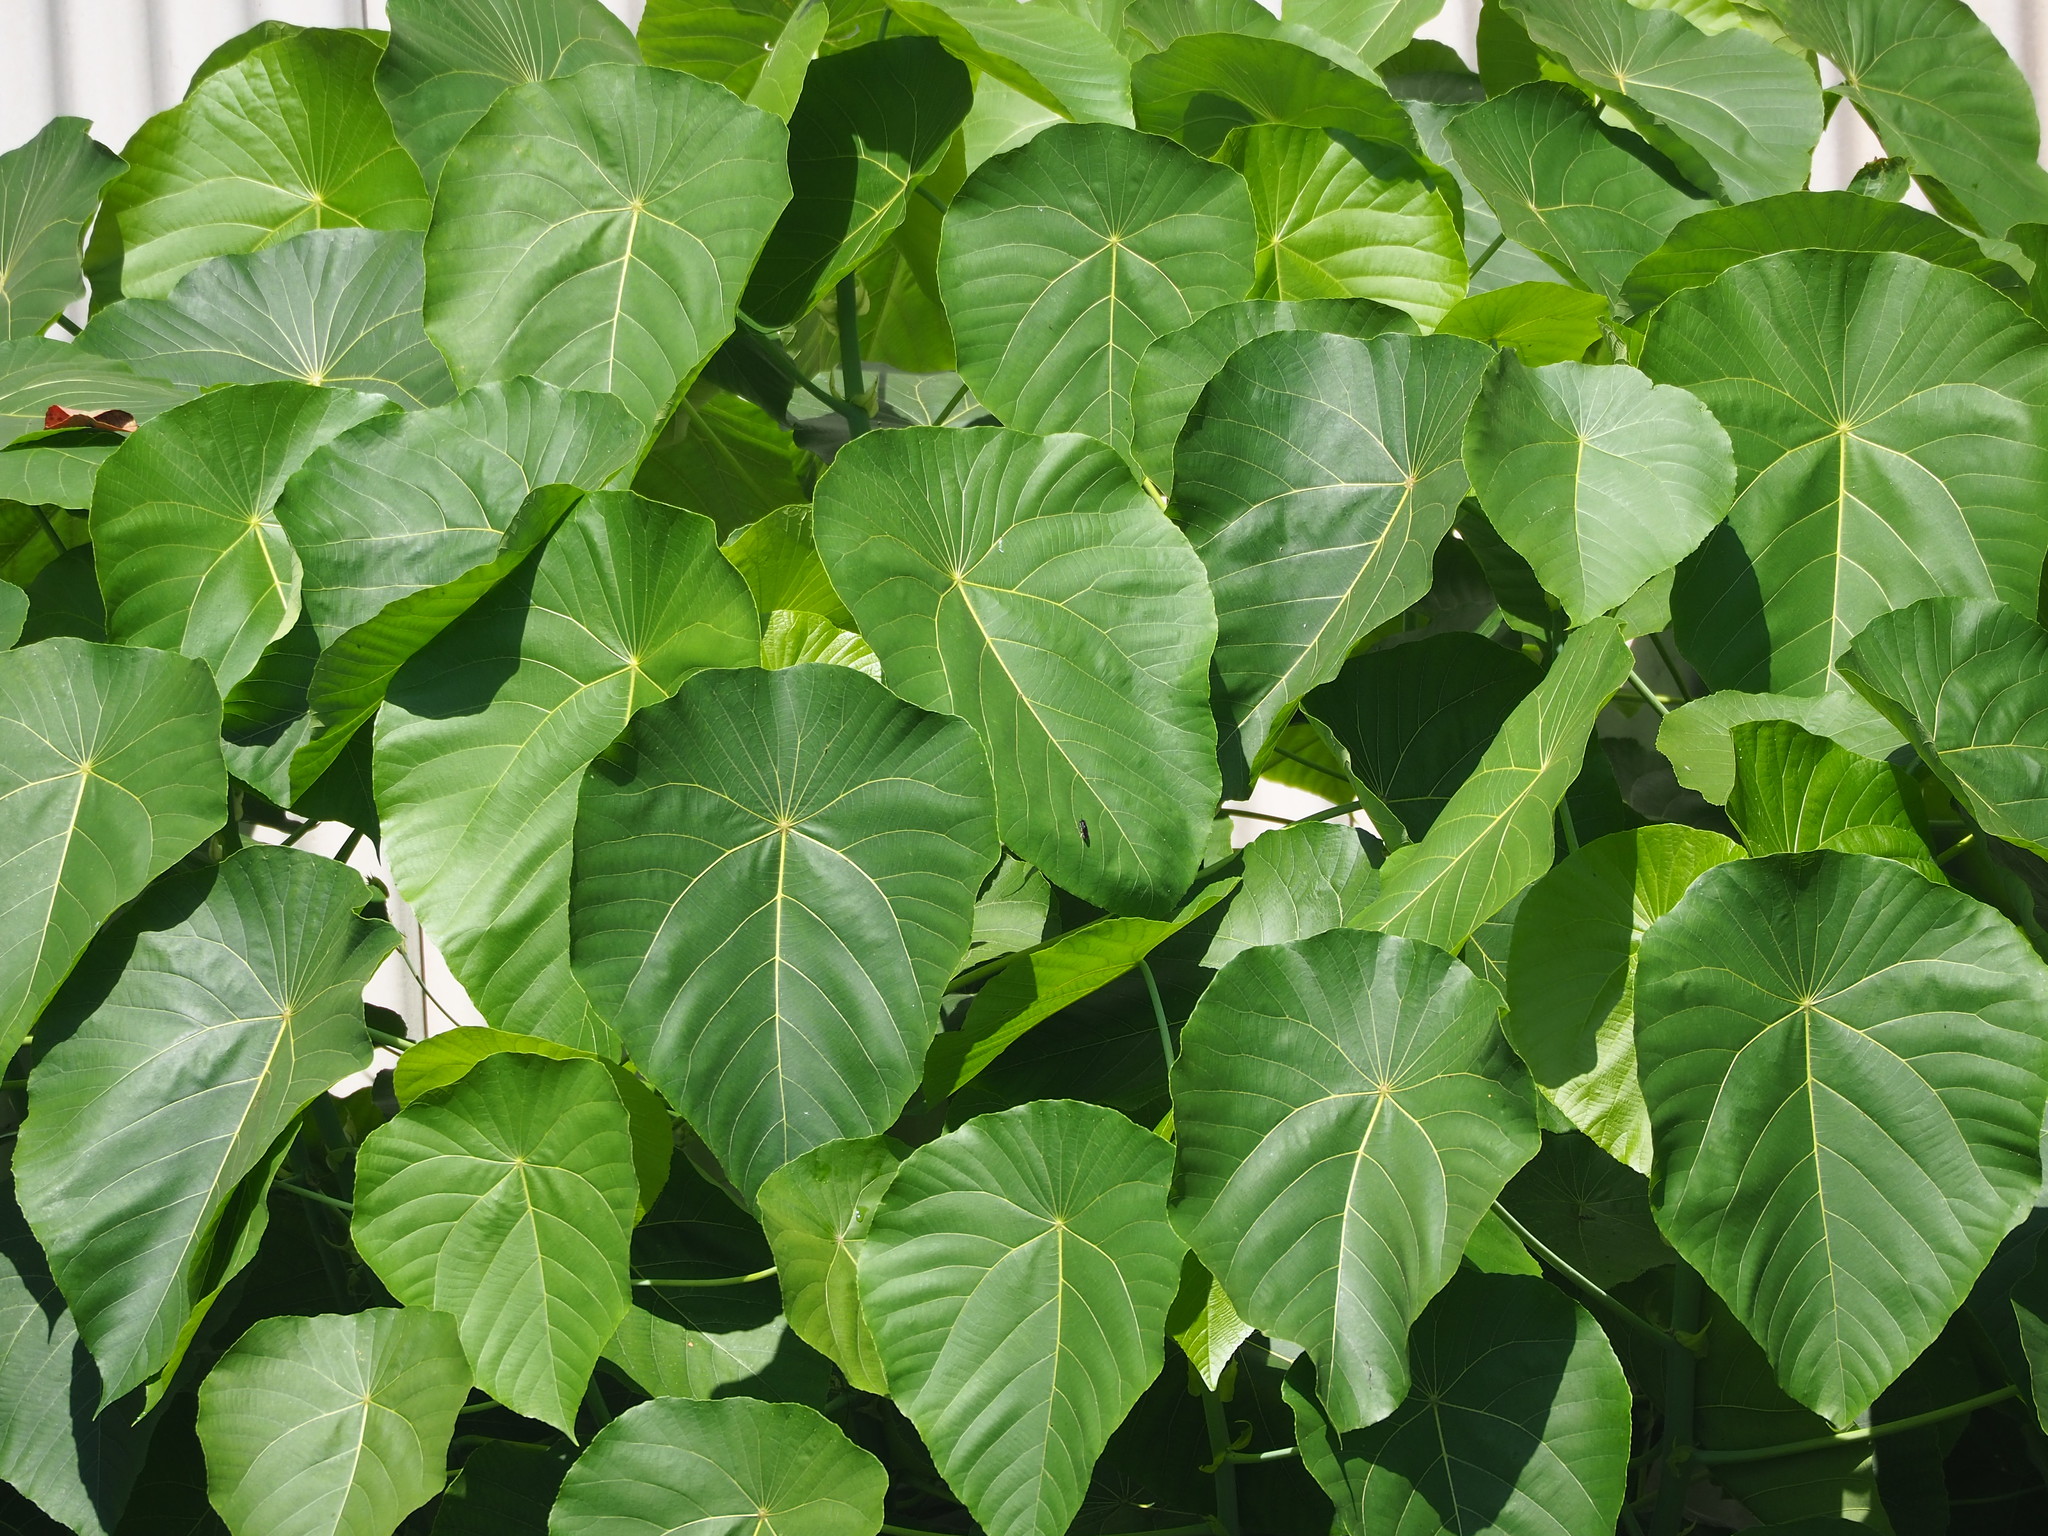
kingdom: Plantae
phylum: Tracheophyta
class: Magnoliopsida
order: Malpighiales
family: Euphorbiaceae
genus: Macaranga
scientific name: Macaranga tanarius
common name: Parasol leaf tree
